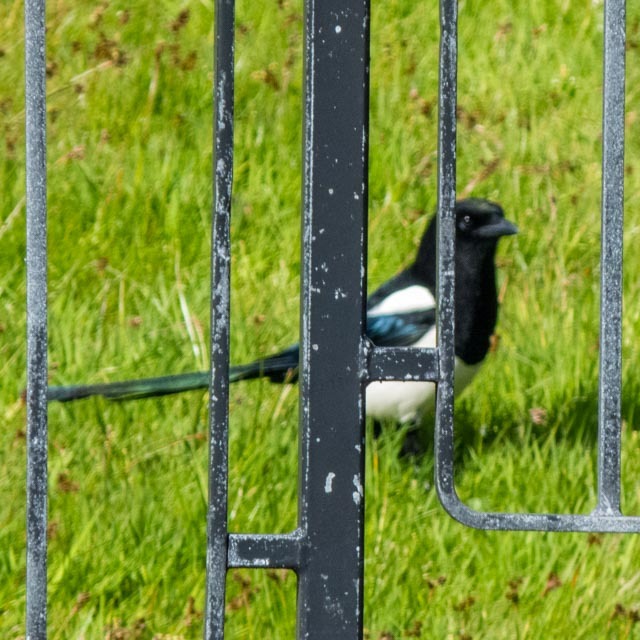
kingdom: Animalia
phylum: Chordata
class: Aves
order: Passeriformes
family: Corvidae
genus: Pica
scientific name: Pica pica
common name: Eurasian magpie
